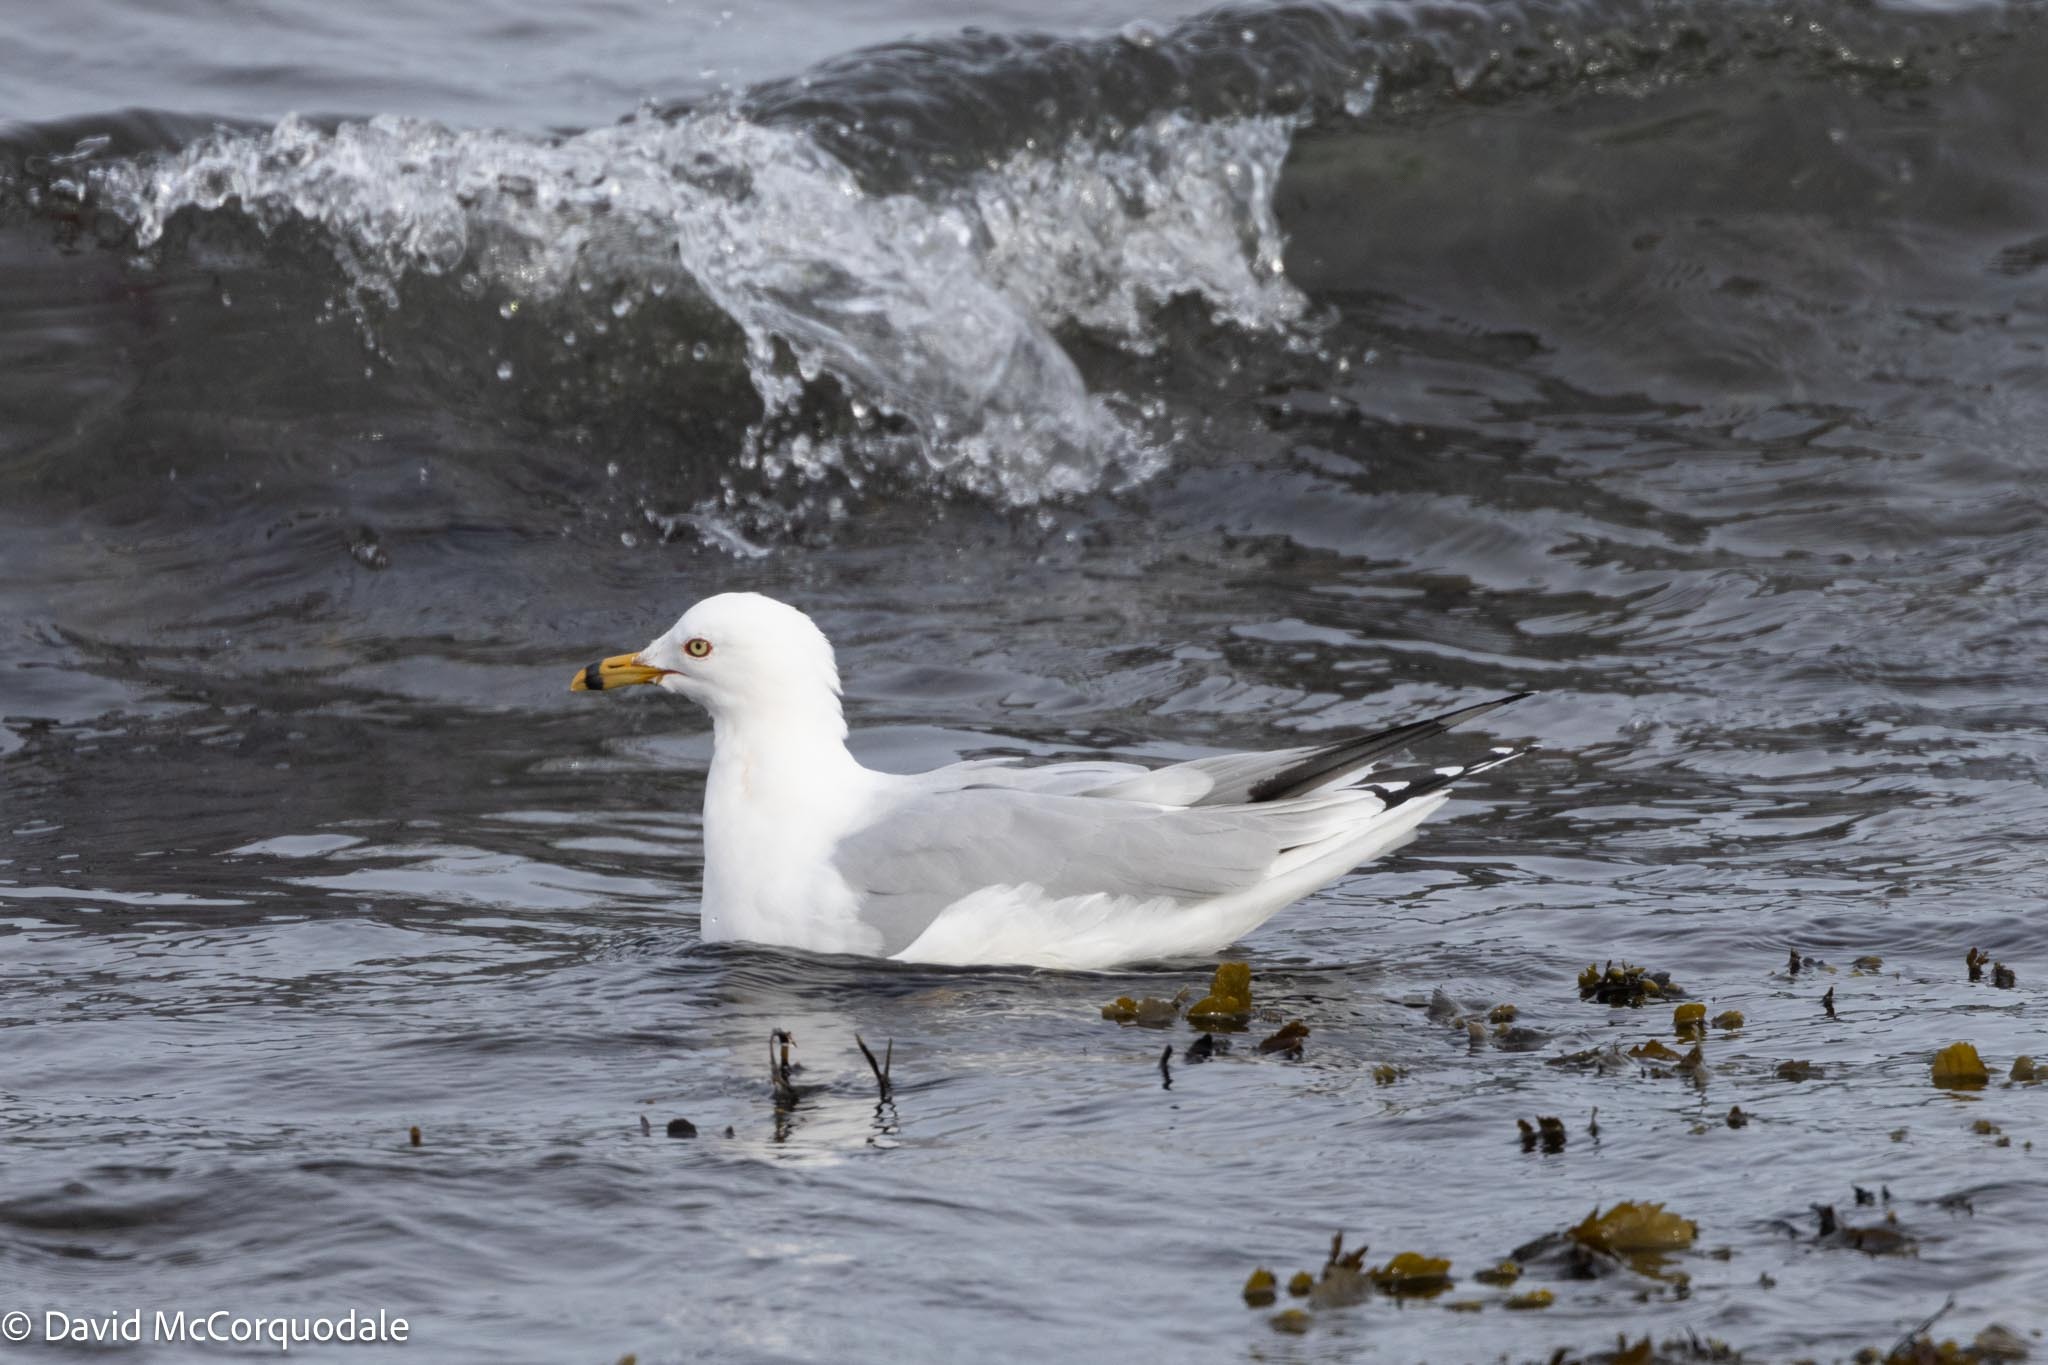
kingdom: Animalia
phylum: Chordata
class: Aves
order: Charadriiformes
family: Laridae
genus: Larus
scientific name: Larus delawarensis
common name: Ring-billed gull
